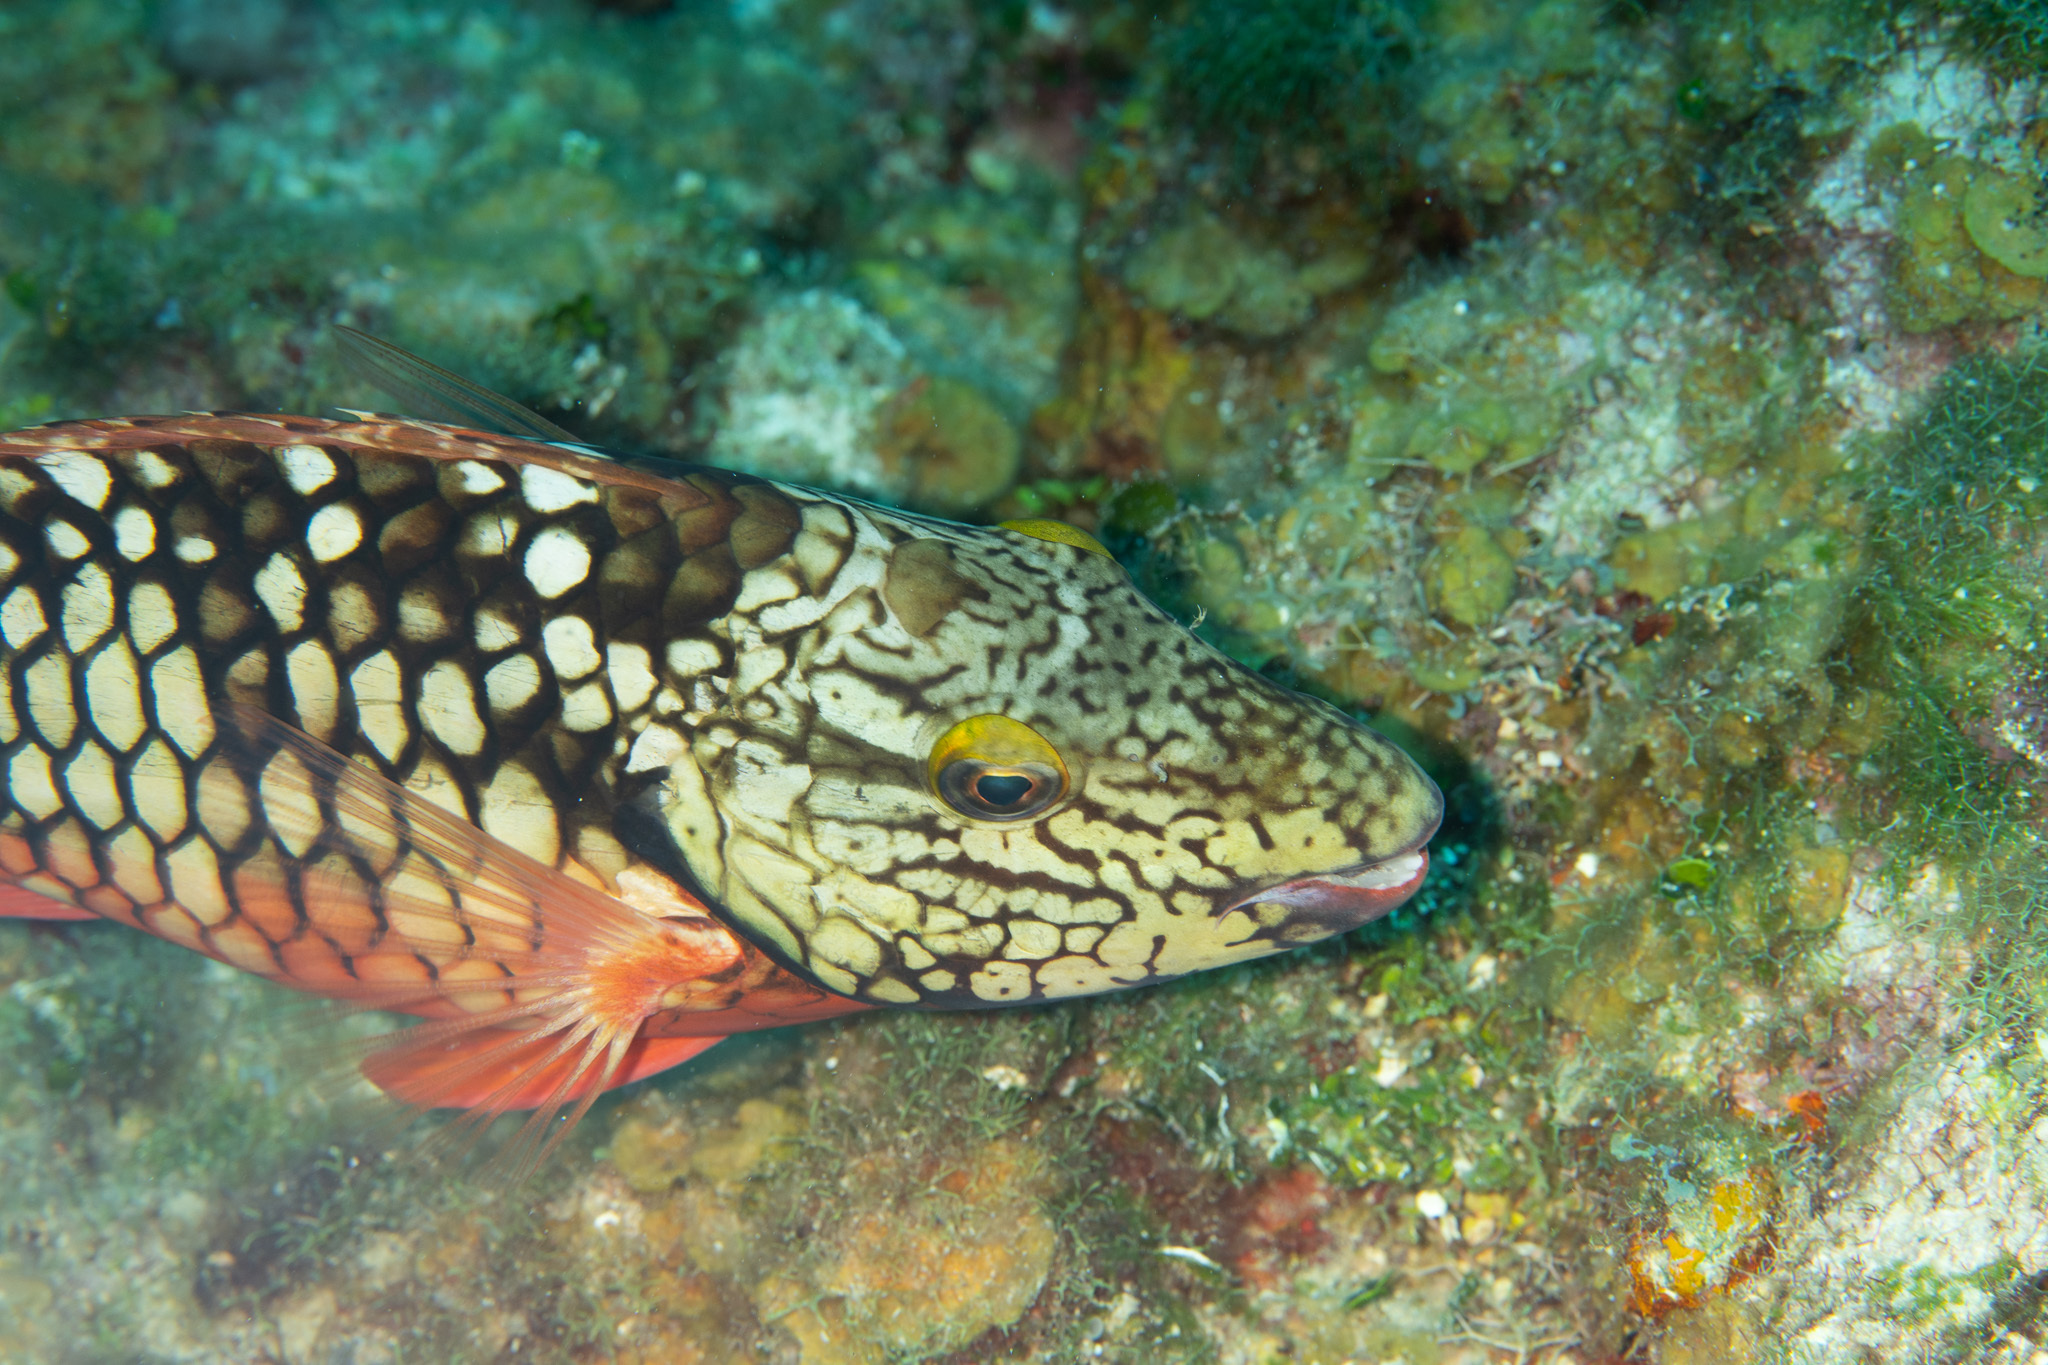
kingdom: Animalia
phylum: Chordata
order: Perciformes
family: Scaridae
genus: Sparisoma
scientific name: Sparisoma viride
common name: Stoplight parrotfish
